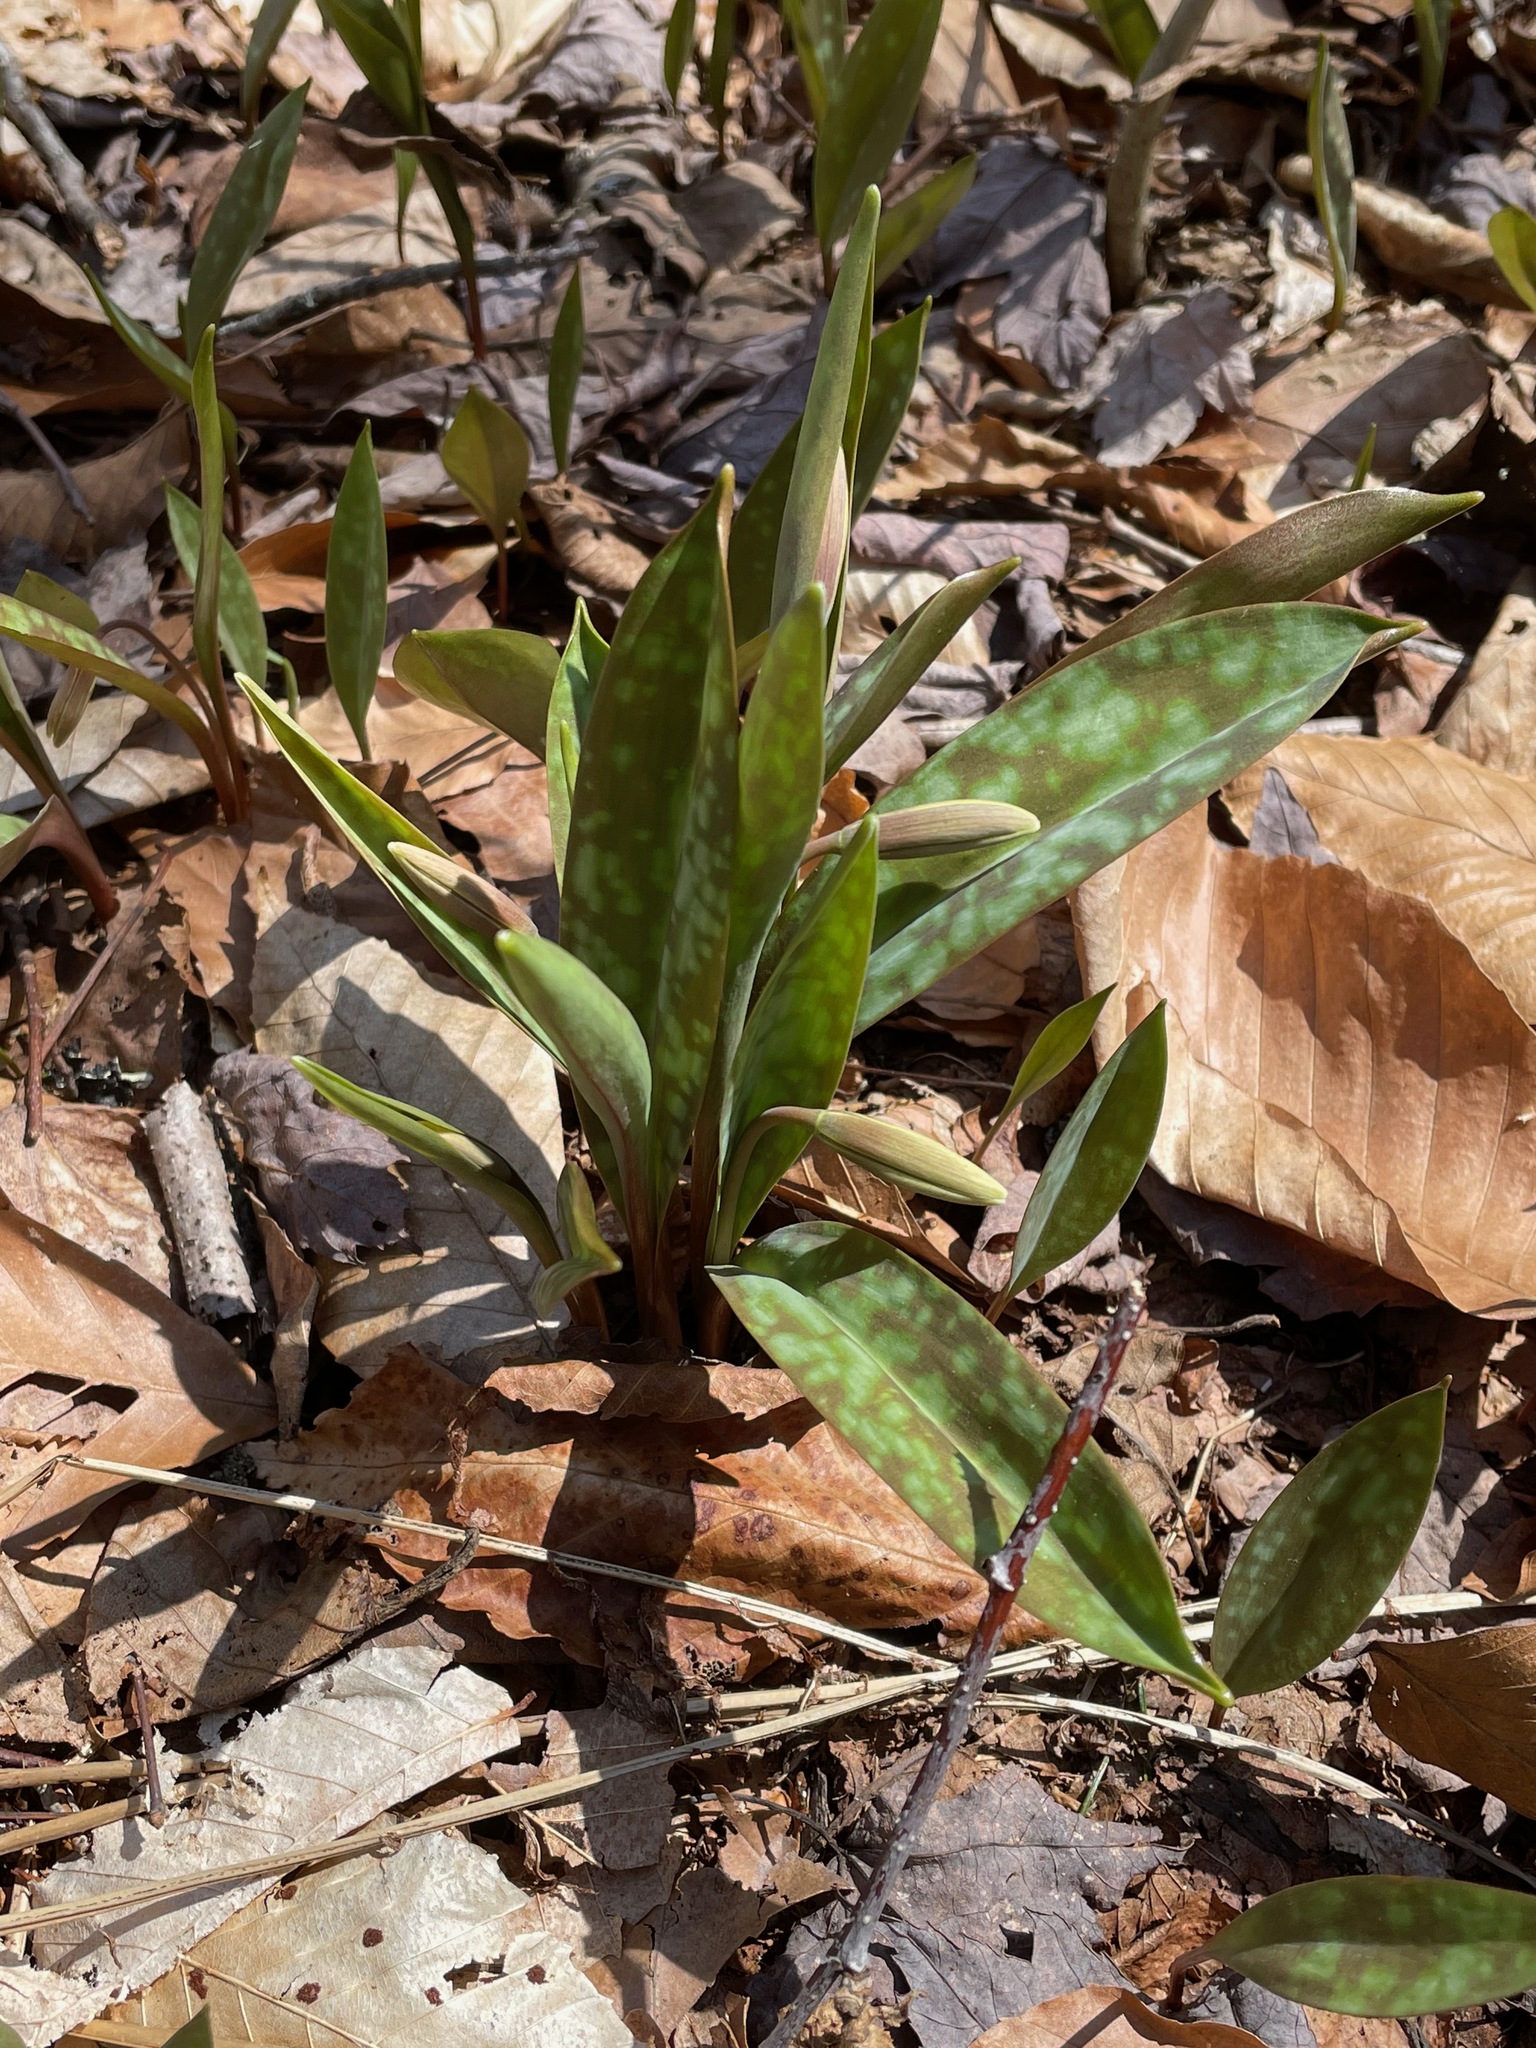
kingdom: Plantae
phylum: Tracheophyta
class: Liliopsida
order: Liliales
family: Liliaceae
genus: Erythronium
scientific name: Erythronium americanum
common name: Yellow adder's-tongue
